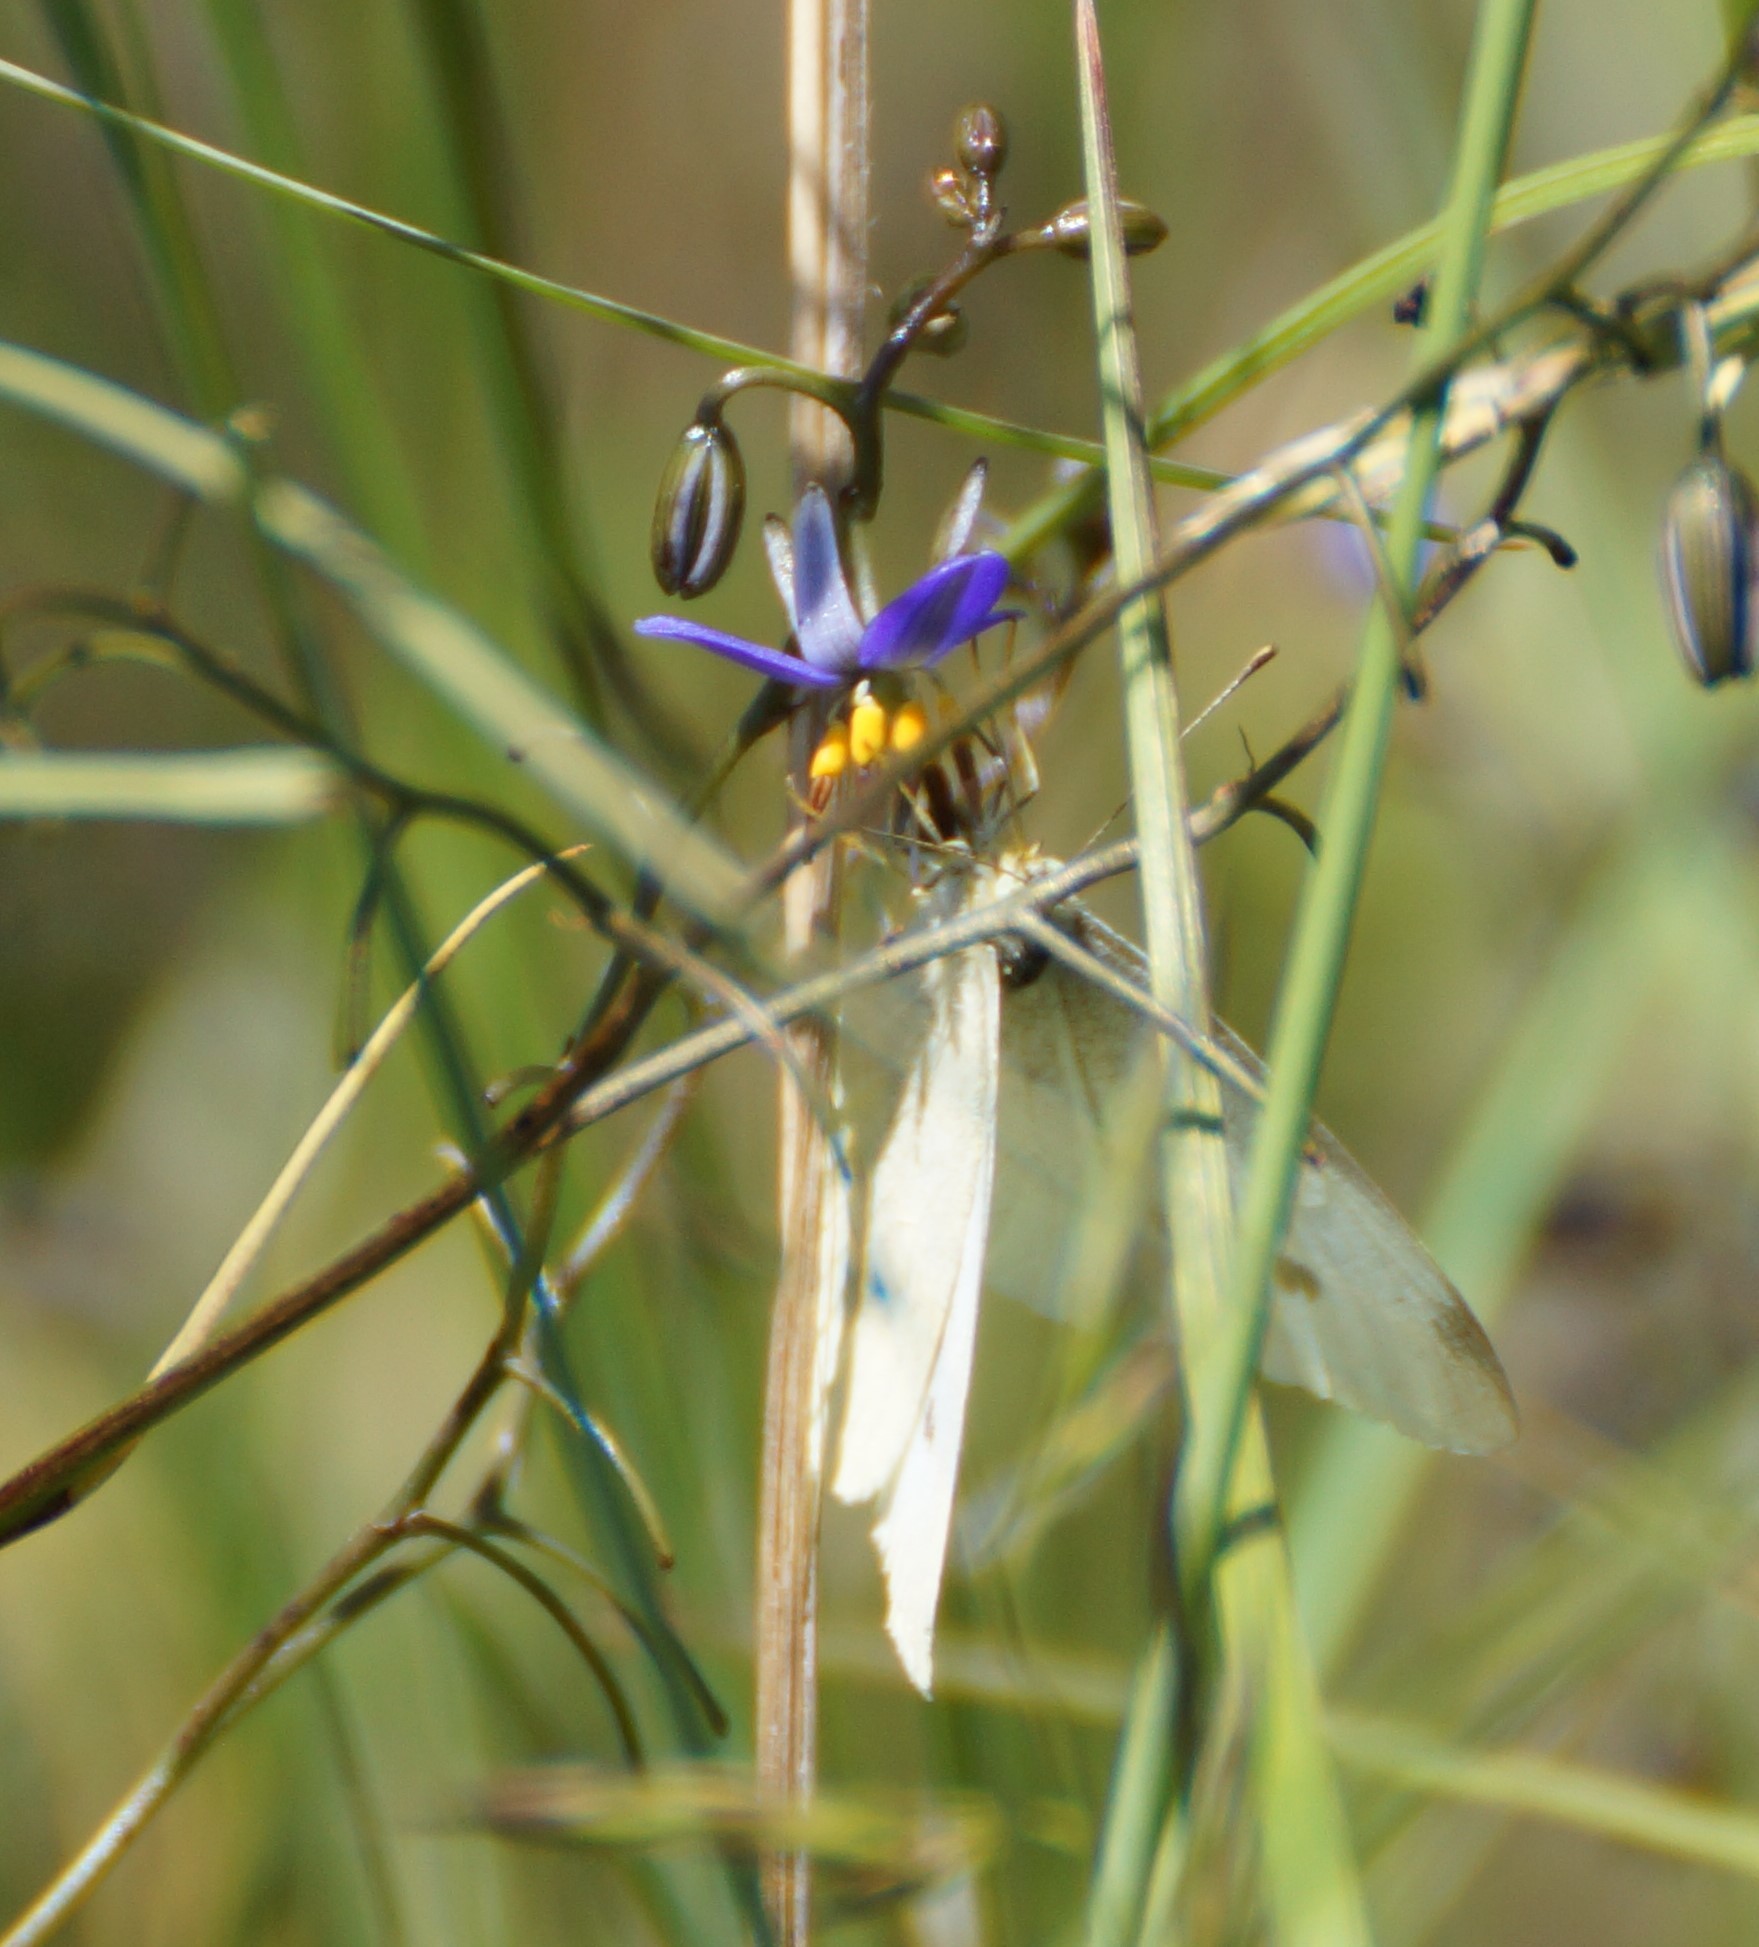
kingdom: Animalia
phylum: Arthropoda
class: Insecta
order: Lepidoptera
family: Pieridae
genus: Pieris
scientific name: Pieris rapae
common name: Small white
